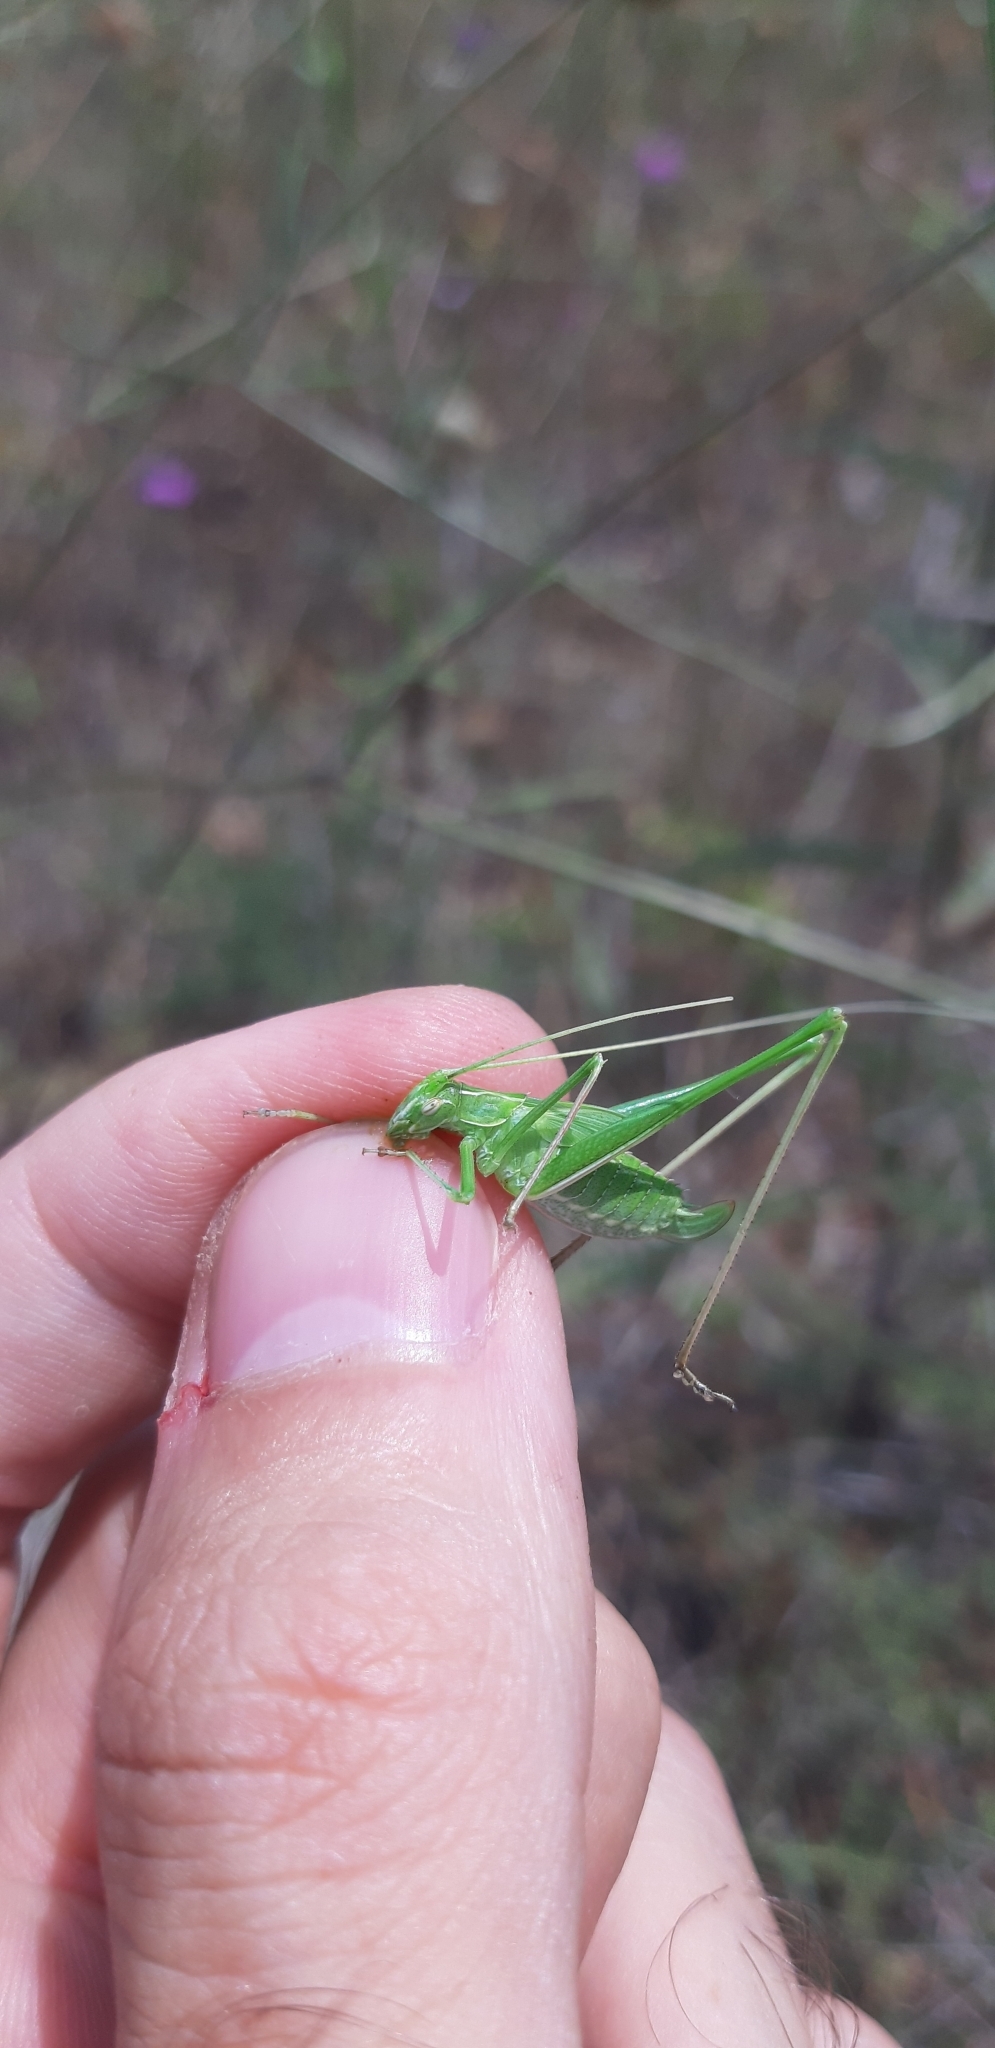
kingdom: Animalia
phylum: Arthropoda
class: Insecta
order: Orthoptera
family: Tettigoniidae
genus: Tylopsis
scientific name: Tylopsis lilifolia
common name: Lily bush-cricket
